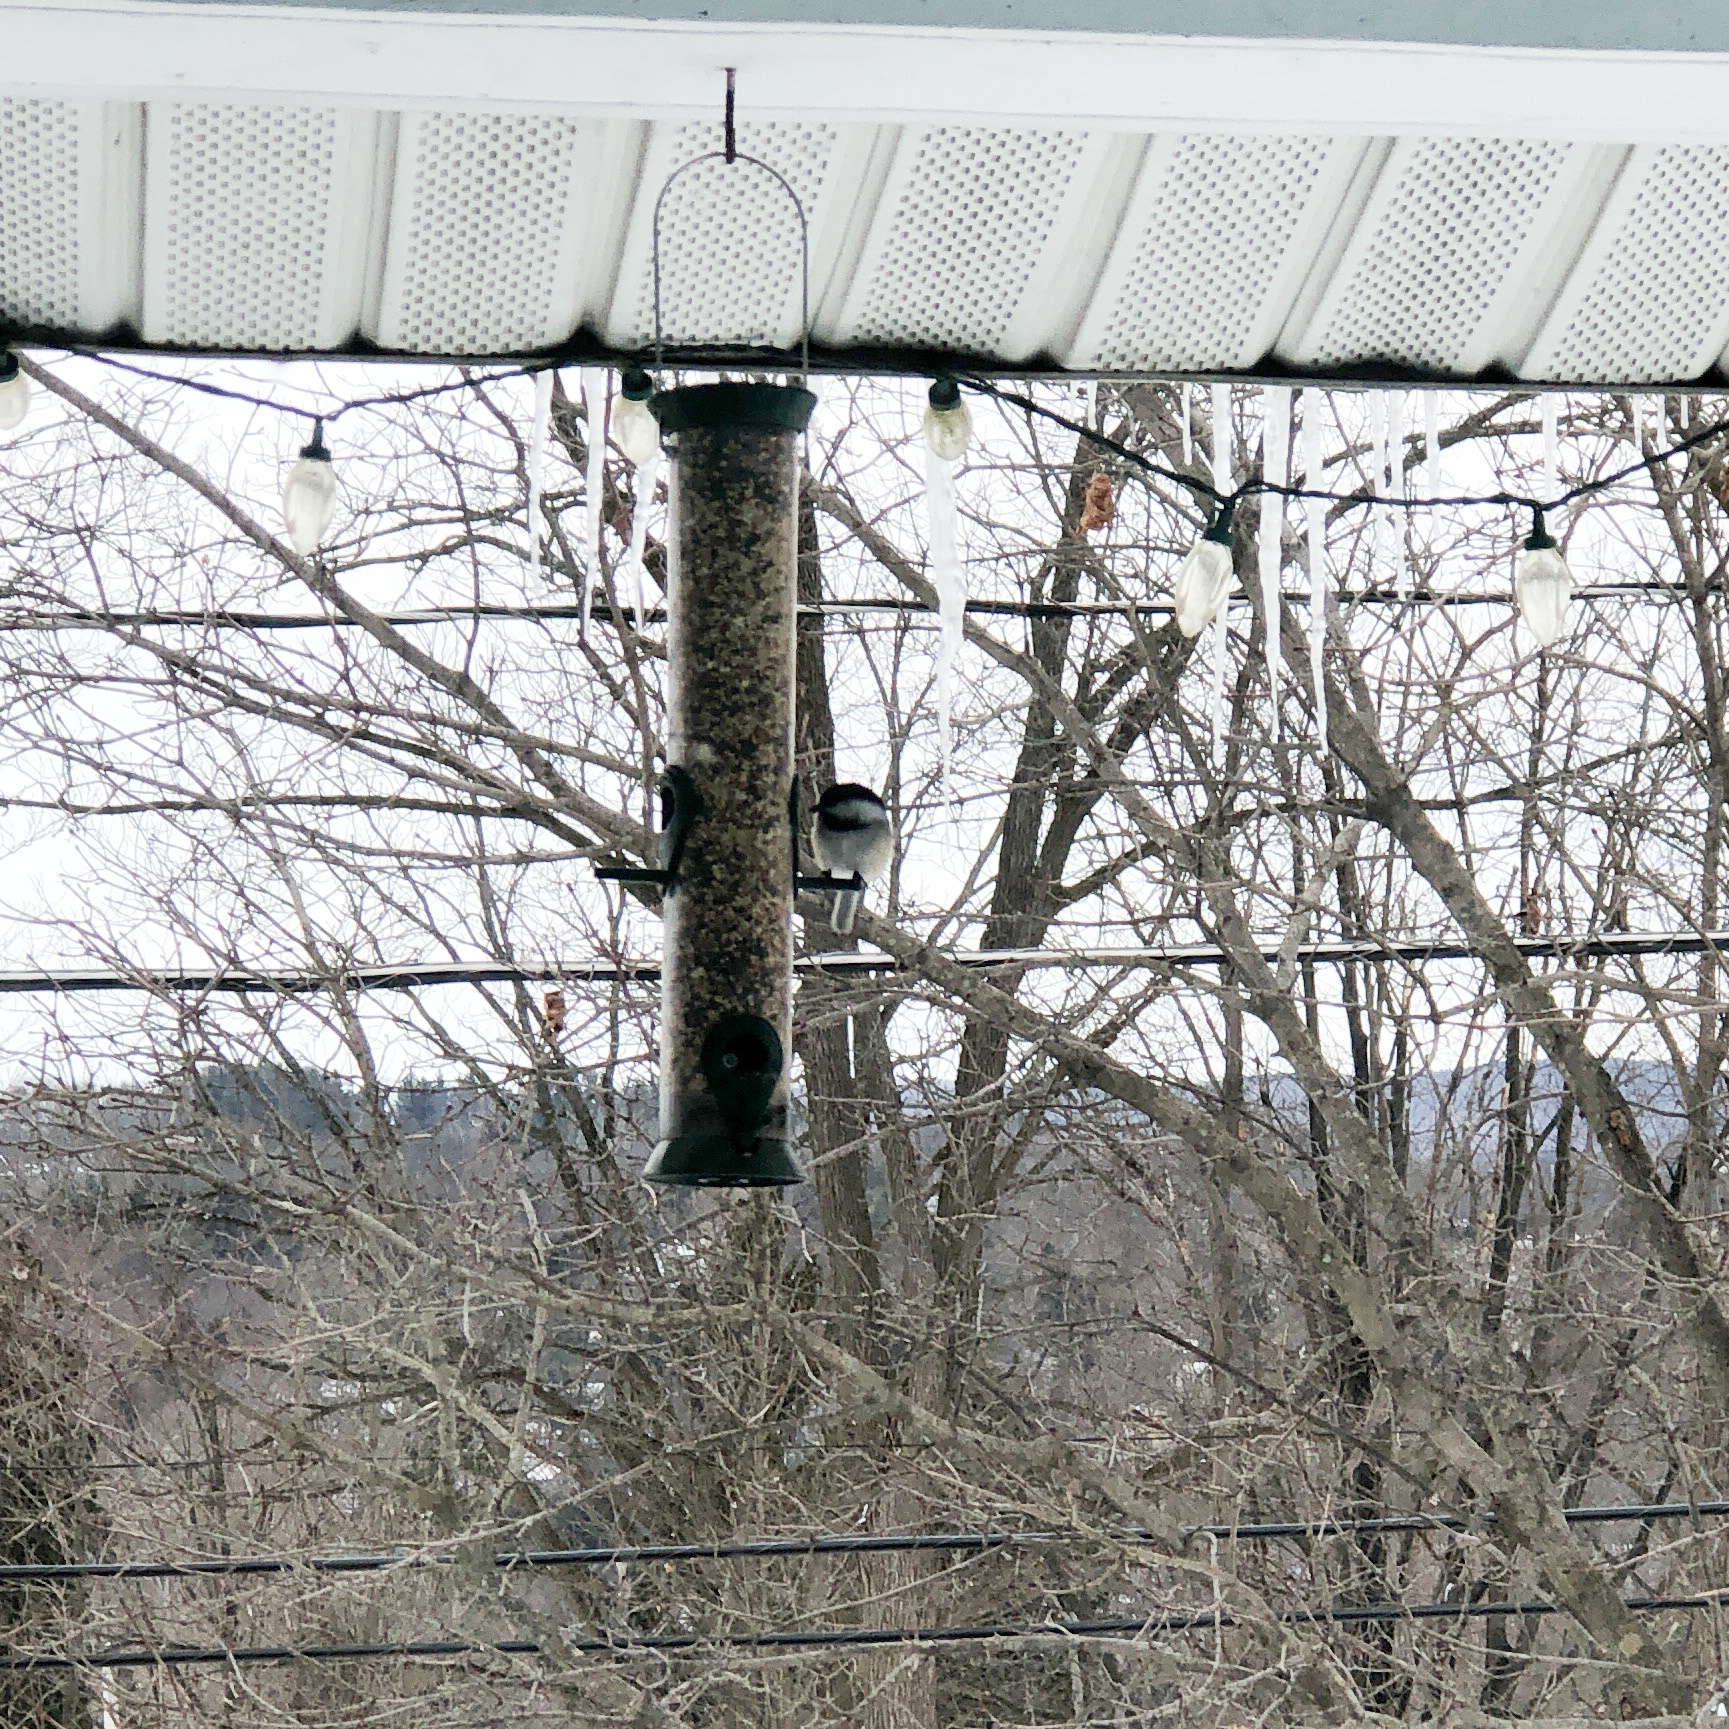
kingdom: Animalia
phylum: Chordata
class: Aves
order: Passeriformes
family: Paridae
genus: Poecile
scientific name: Poecile atricapillus
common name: Black-capped chickadee
